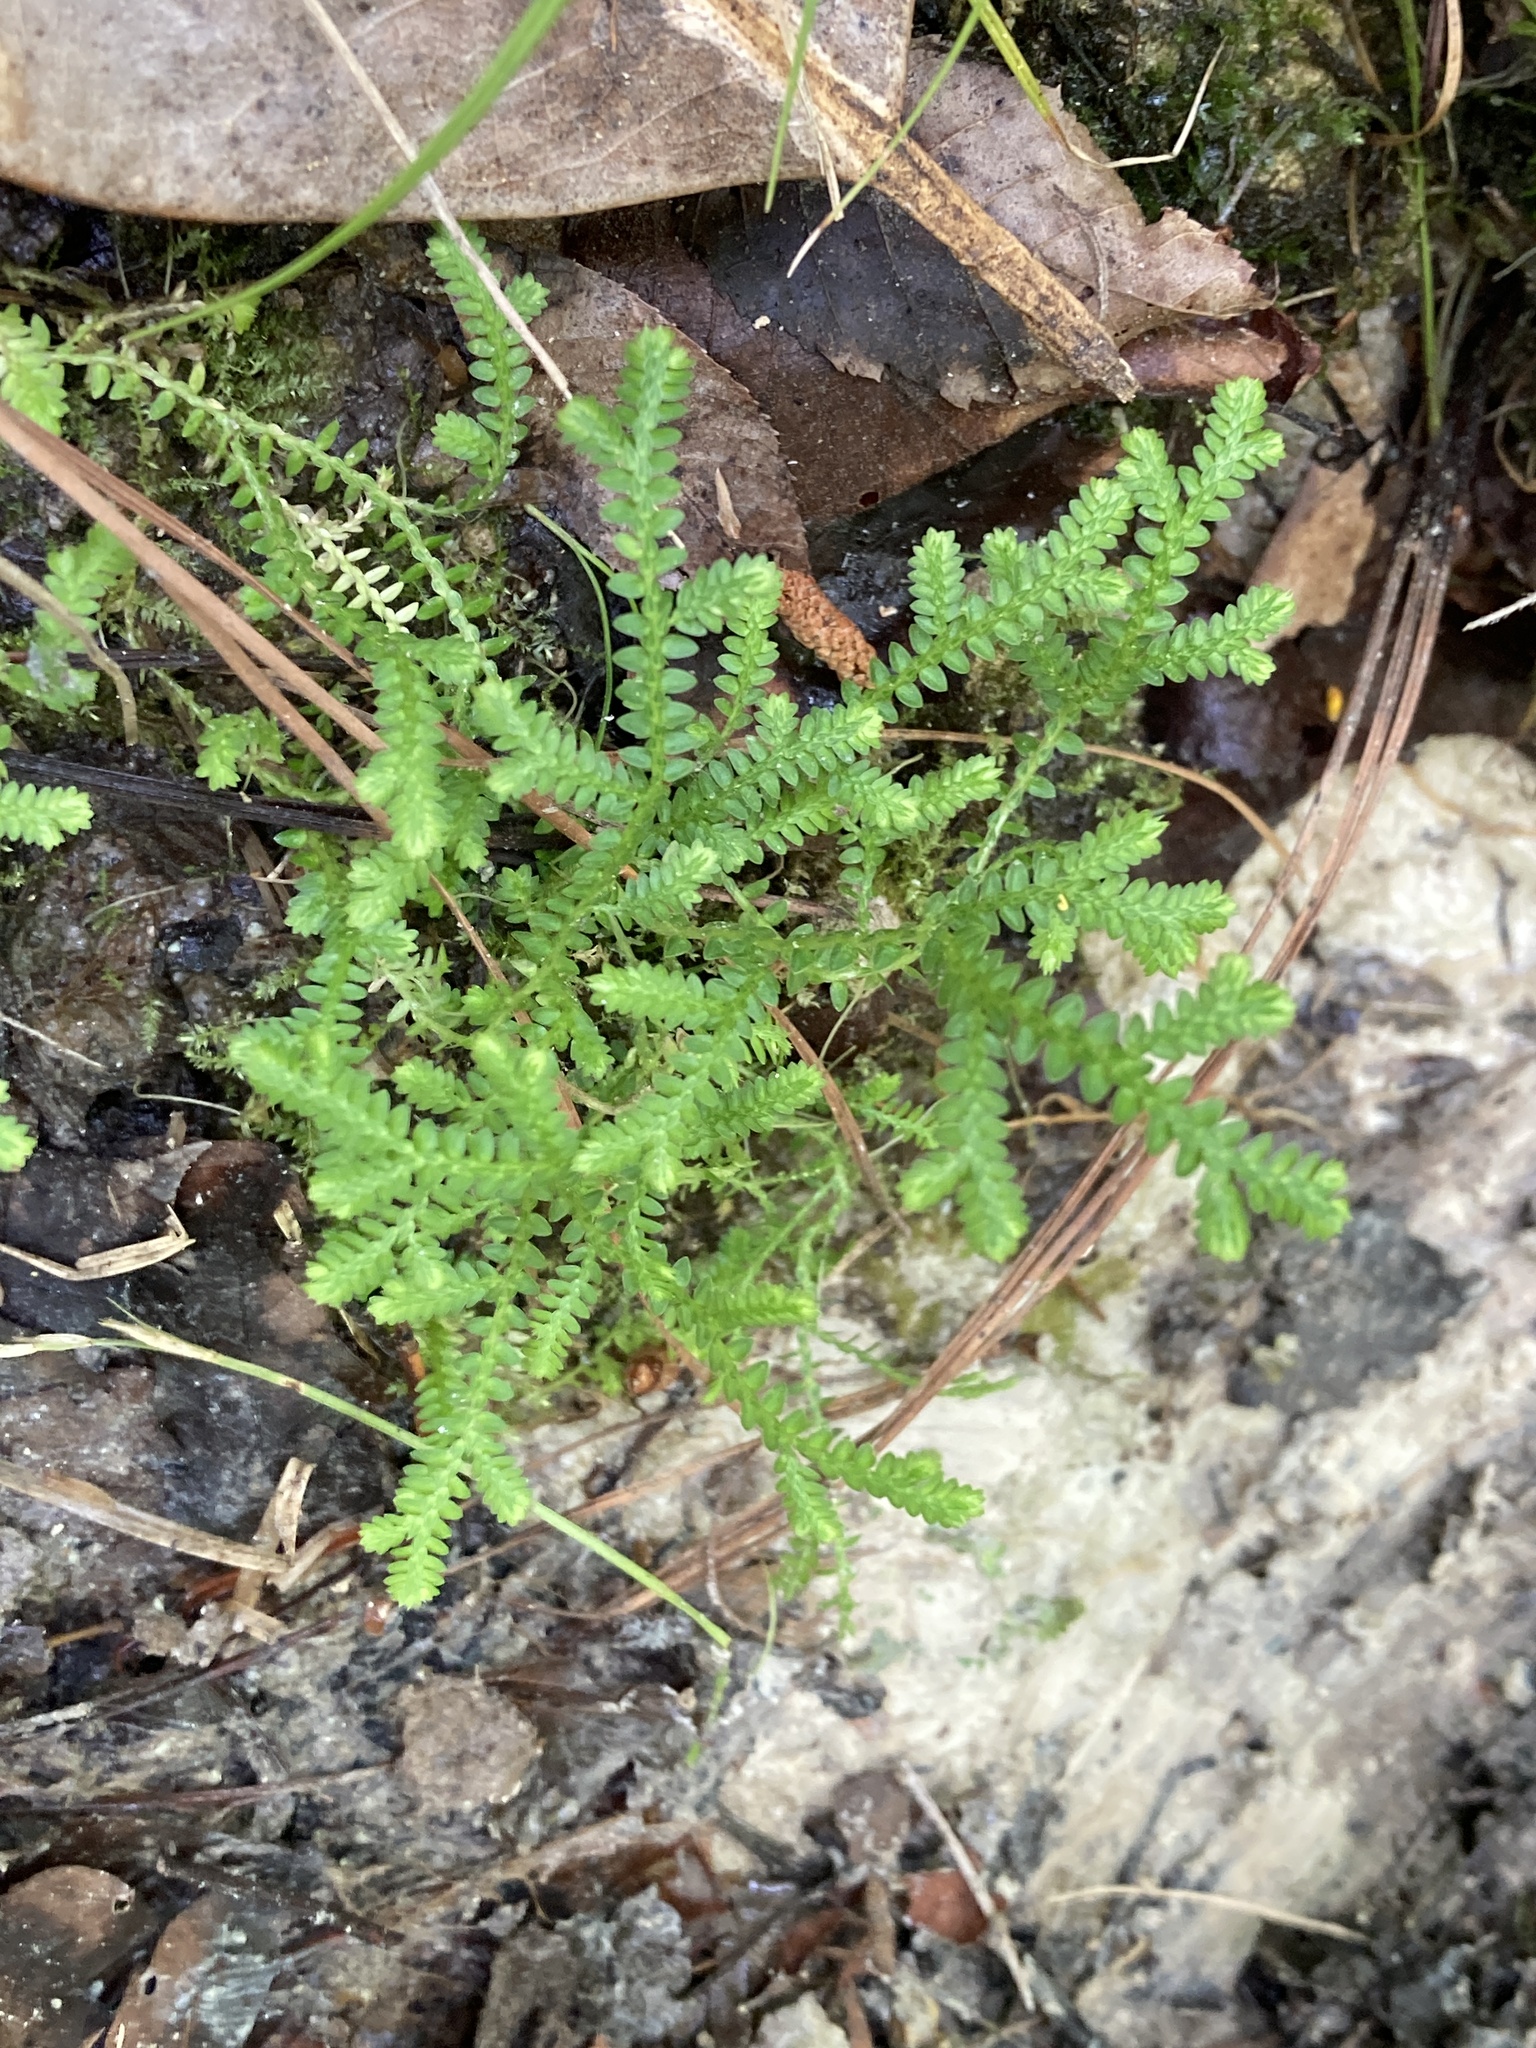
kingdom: Plantae
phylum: Tracheophyta
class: Lycopodiopsida
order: Selaginellales
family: Selaginellaceae
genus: Selaginella
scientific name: Selaginella apoda
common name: Creeping spikemoss
